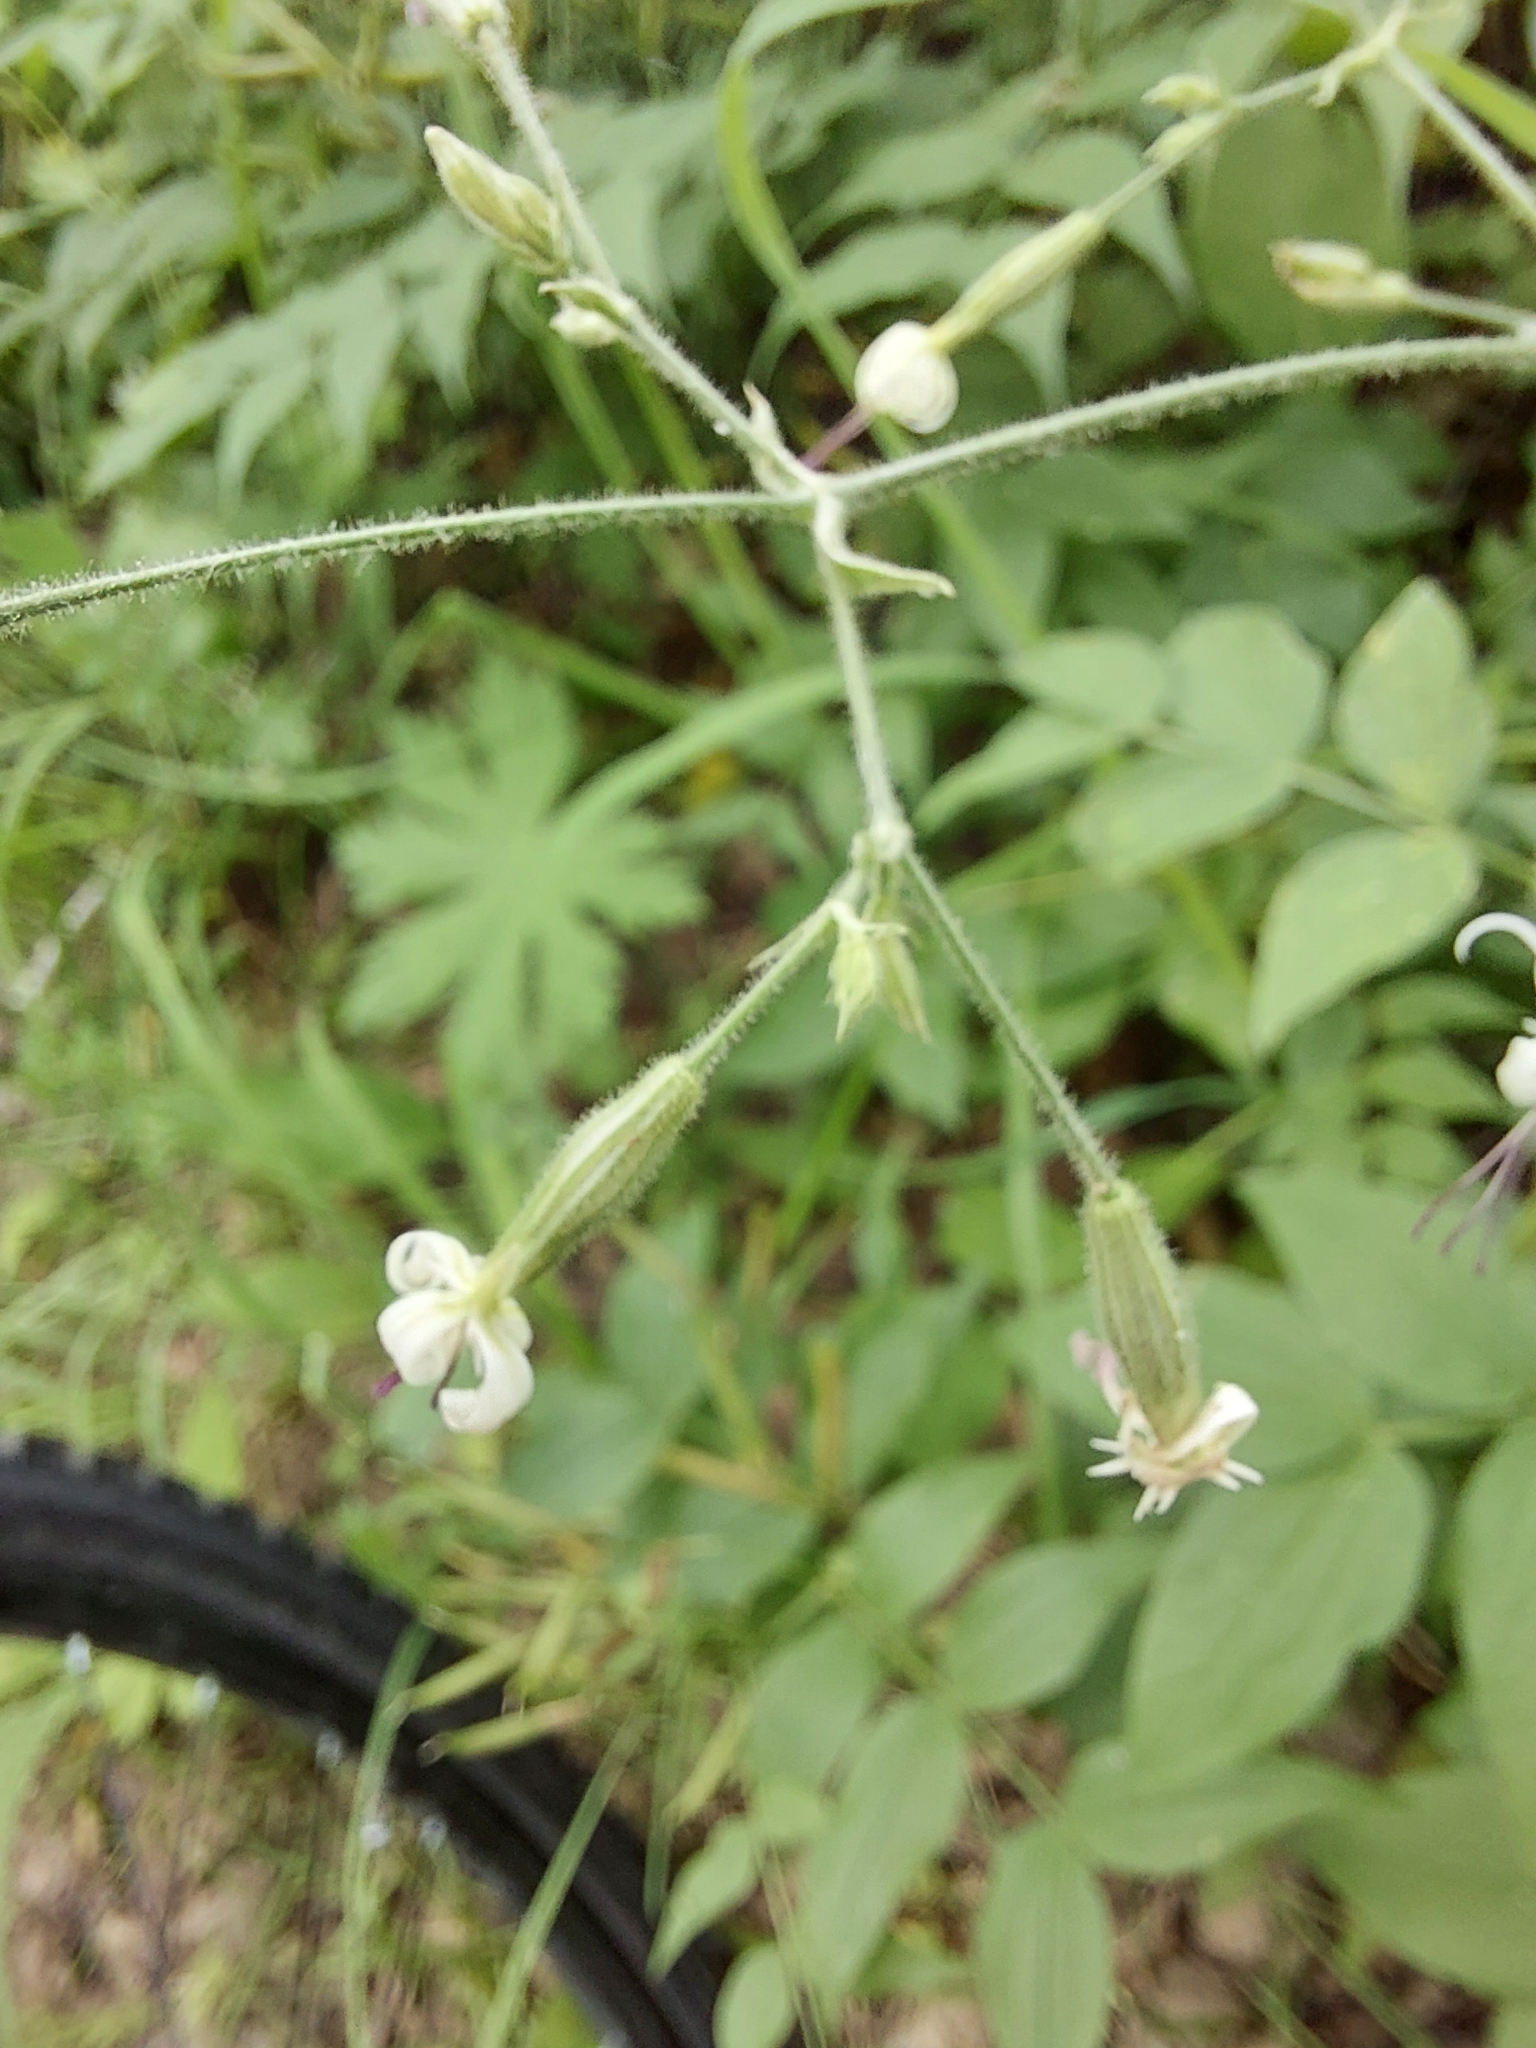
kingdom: Plantae
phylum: Tracheophyta
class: Magnoliopsida
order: Caryophyllales
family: Caryophyllaceae
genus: Silene
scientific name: Silene nutans
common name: Nottingham catchfly
